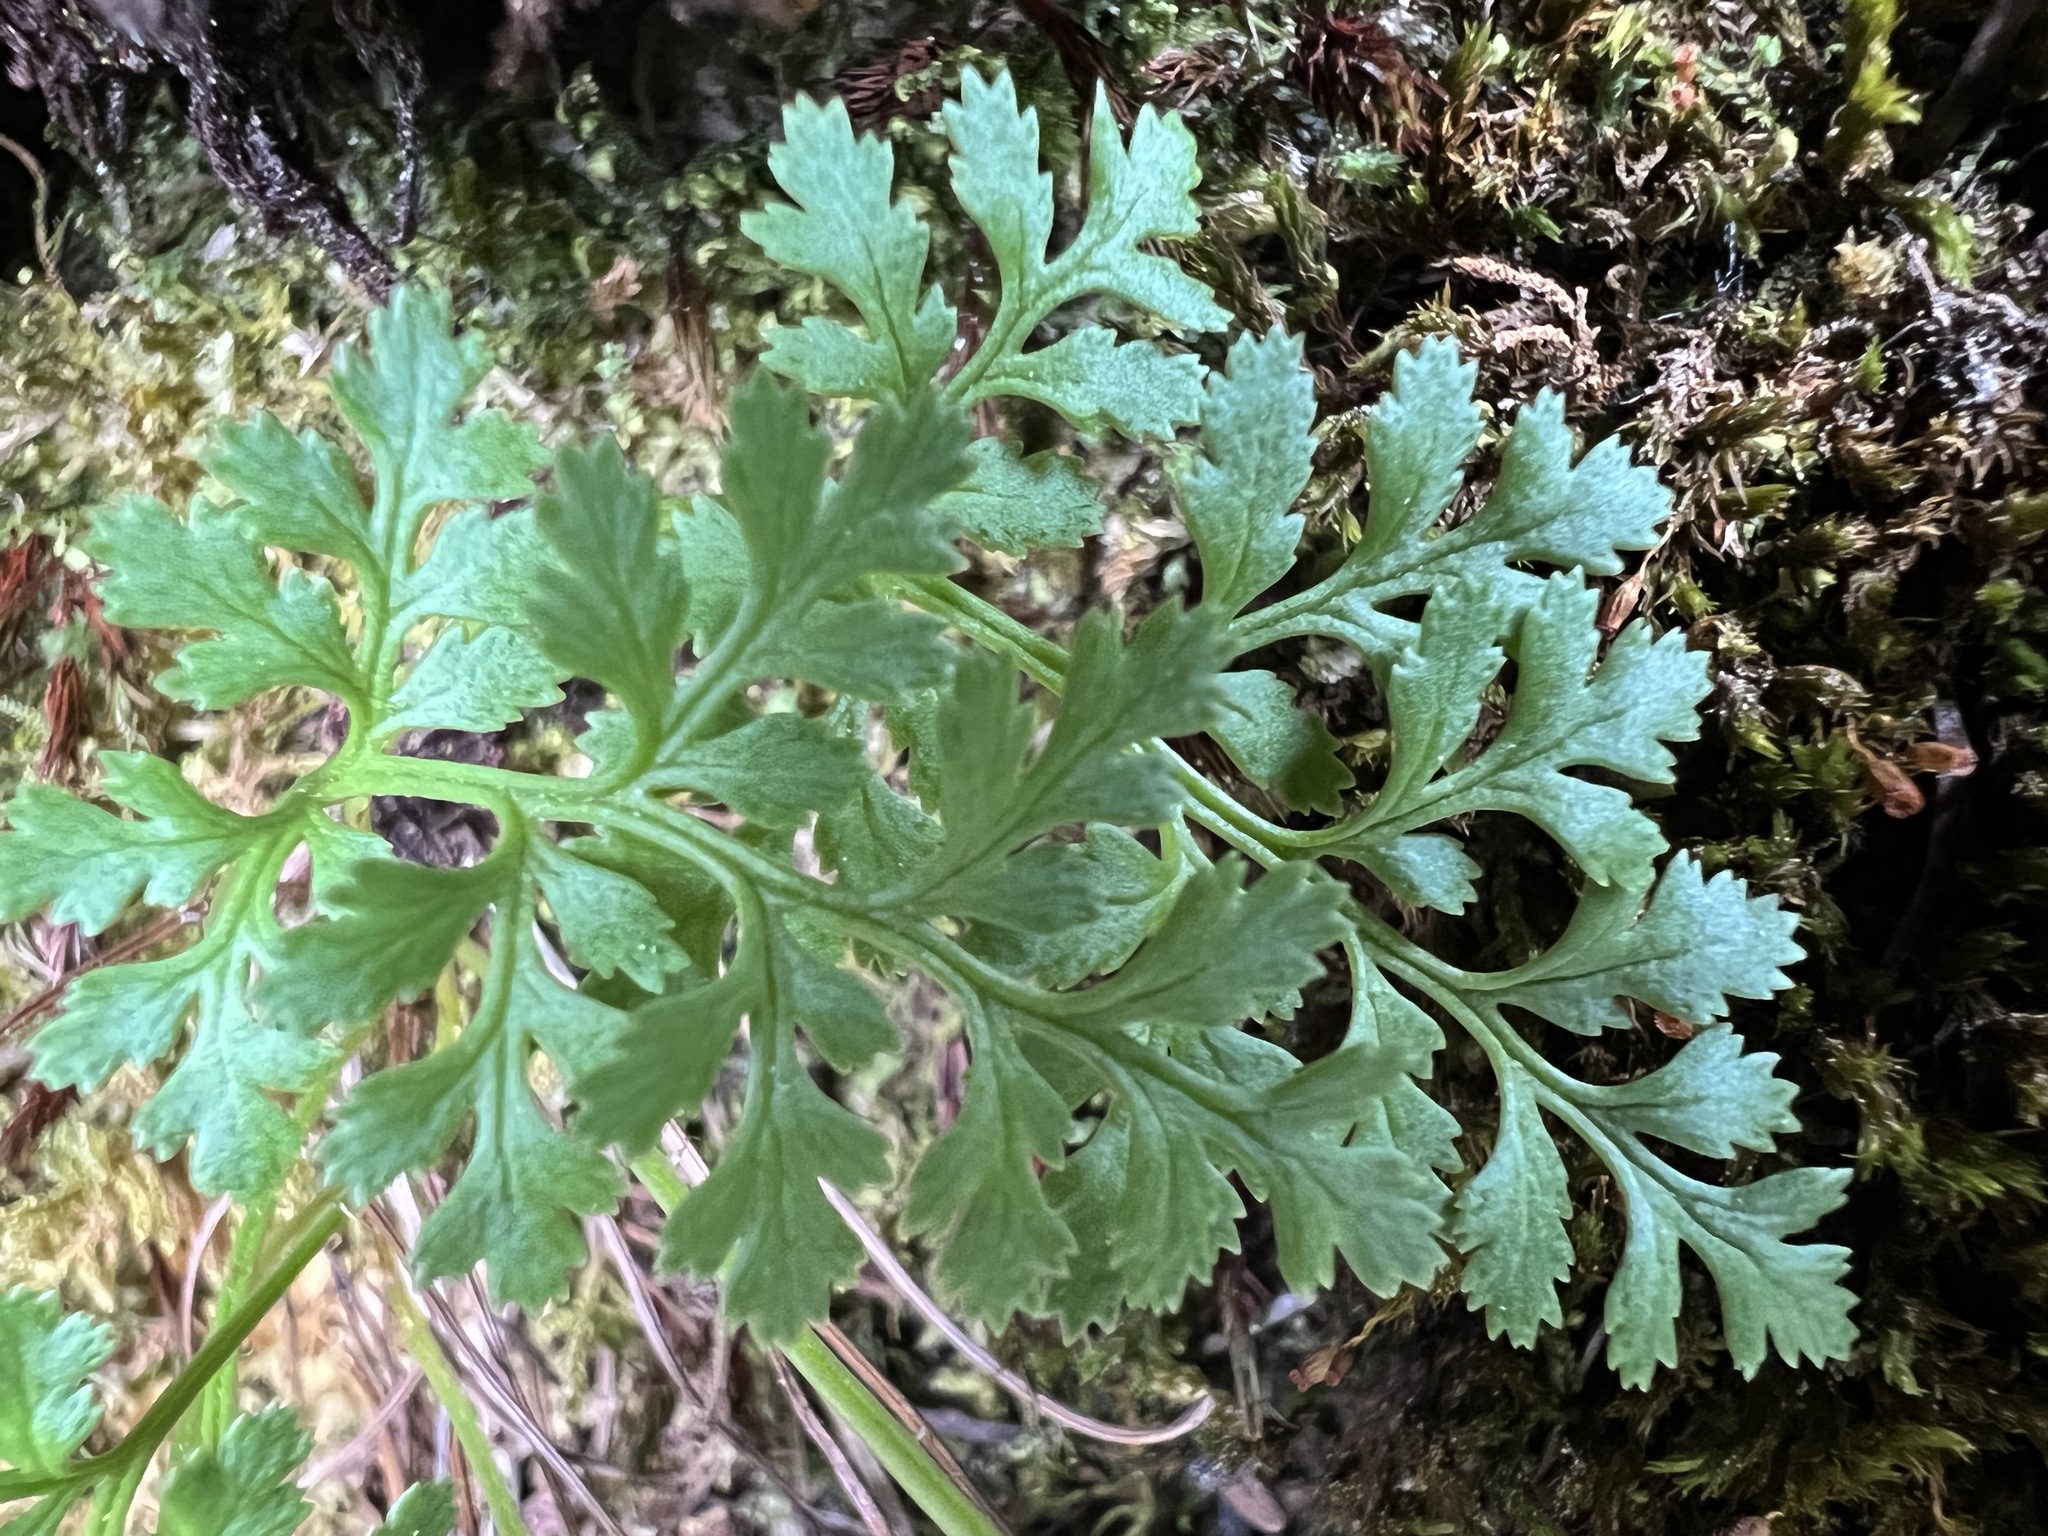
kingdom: Plantae
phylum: Tracheophyta
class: Polypodiopsida
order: Polypodiales
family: Pteridaceae
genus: Cryptogramma
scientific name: Cryptogramma acrostichoides
